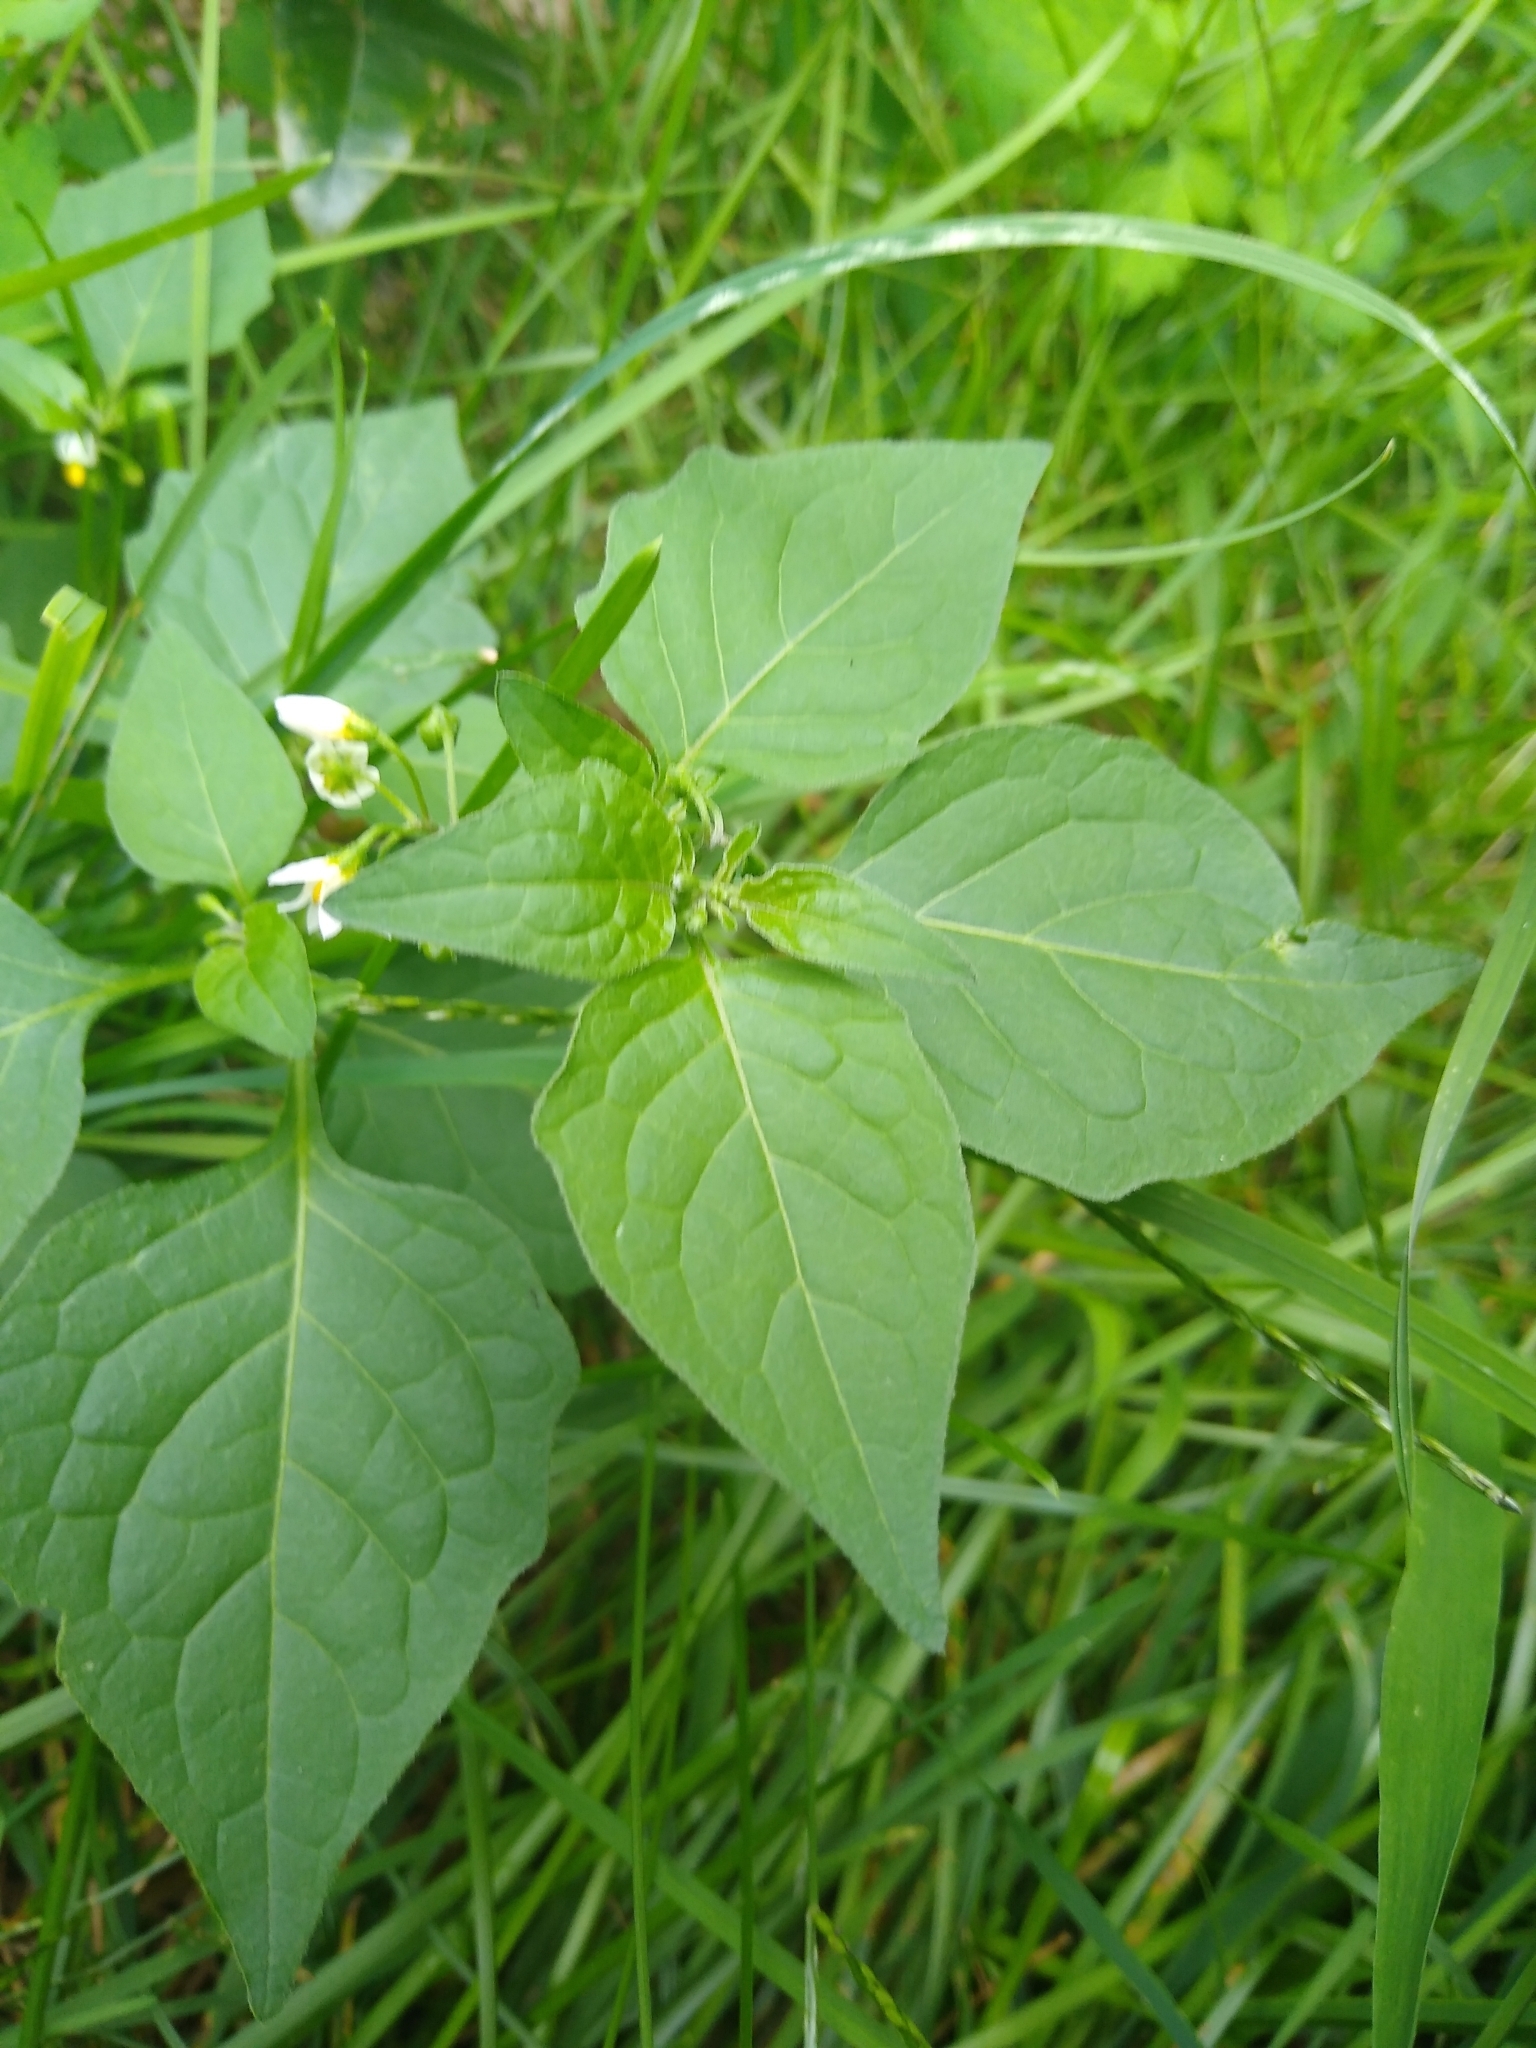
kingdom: Plantae
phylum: Tracheophyta
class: Magnoliopsida
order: Solanales
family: Solanaceae
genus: Solanum
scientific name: Solanum nigrum
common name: Black nightshade
